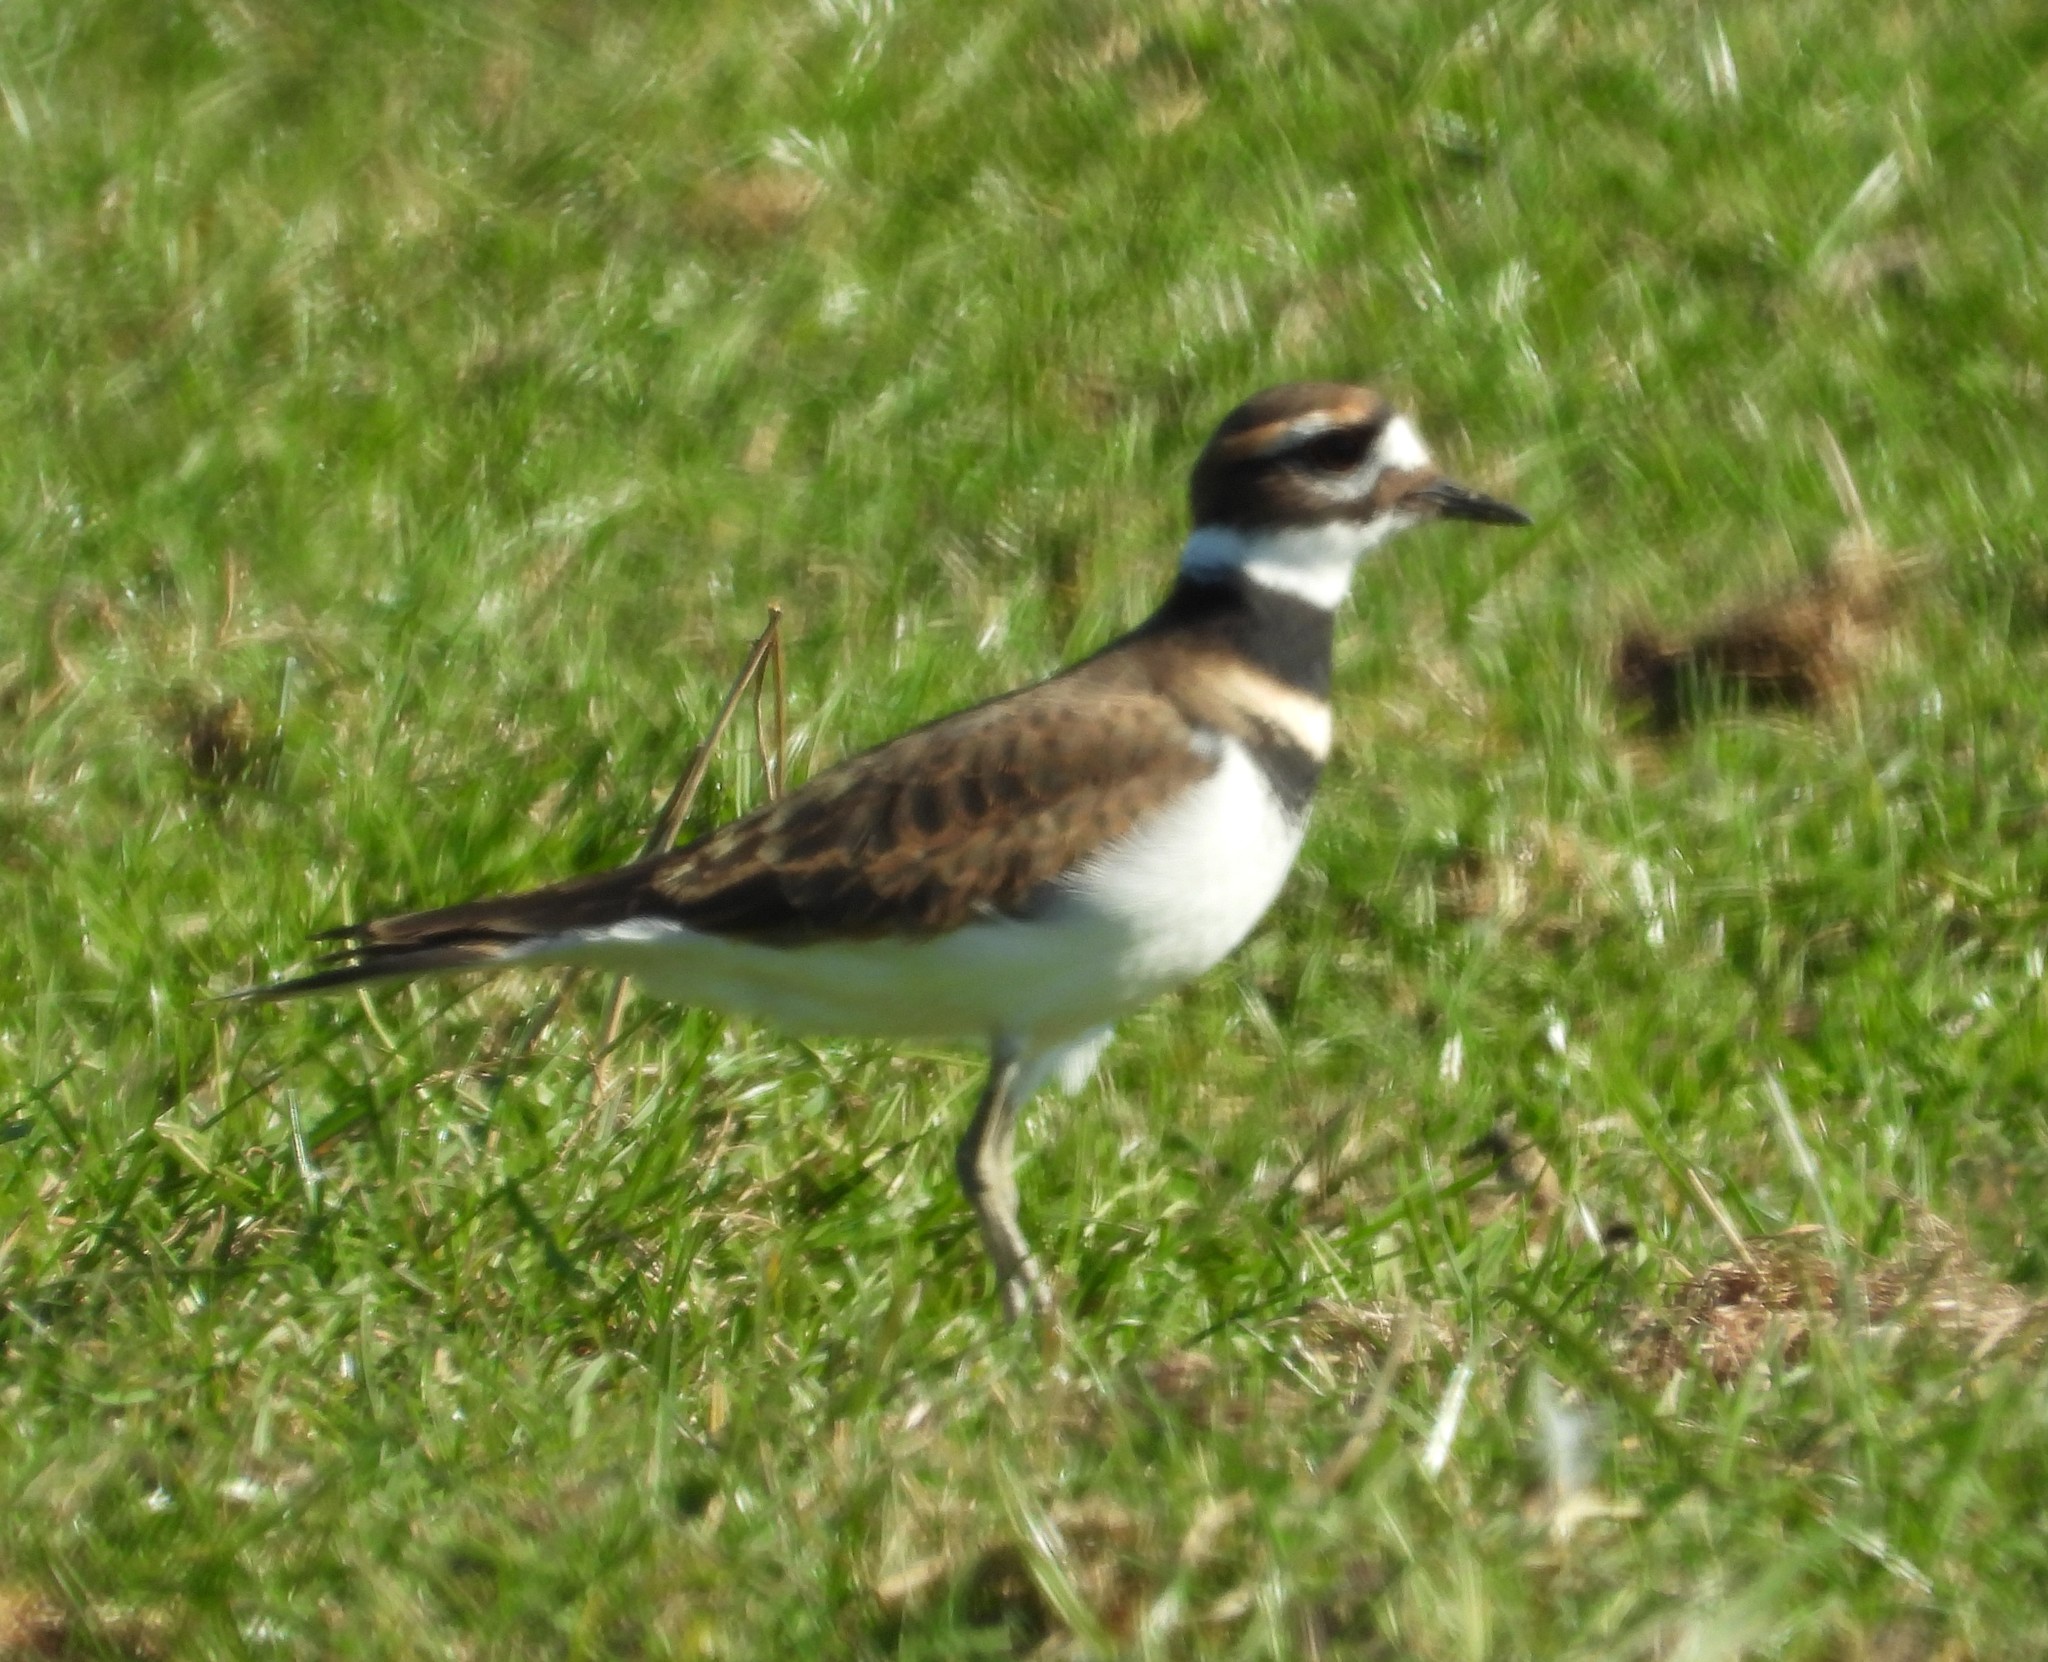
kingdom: Animalia
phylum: Chordata
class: Aves
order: Charadriiformes
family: Charadriidae
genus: Charadrius
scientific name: Charadrius vociferus
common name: Killdeer
